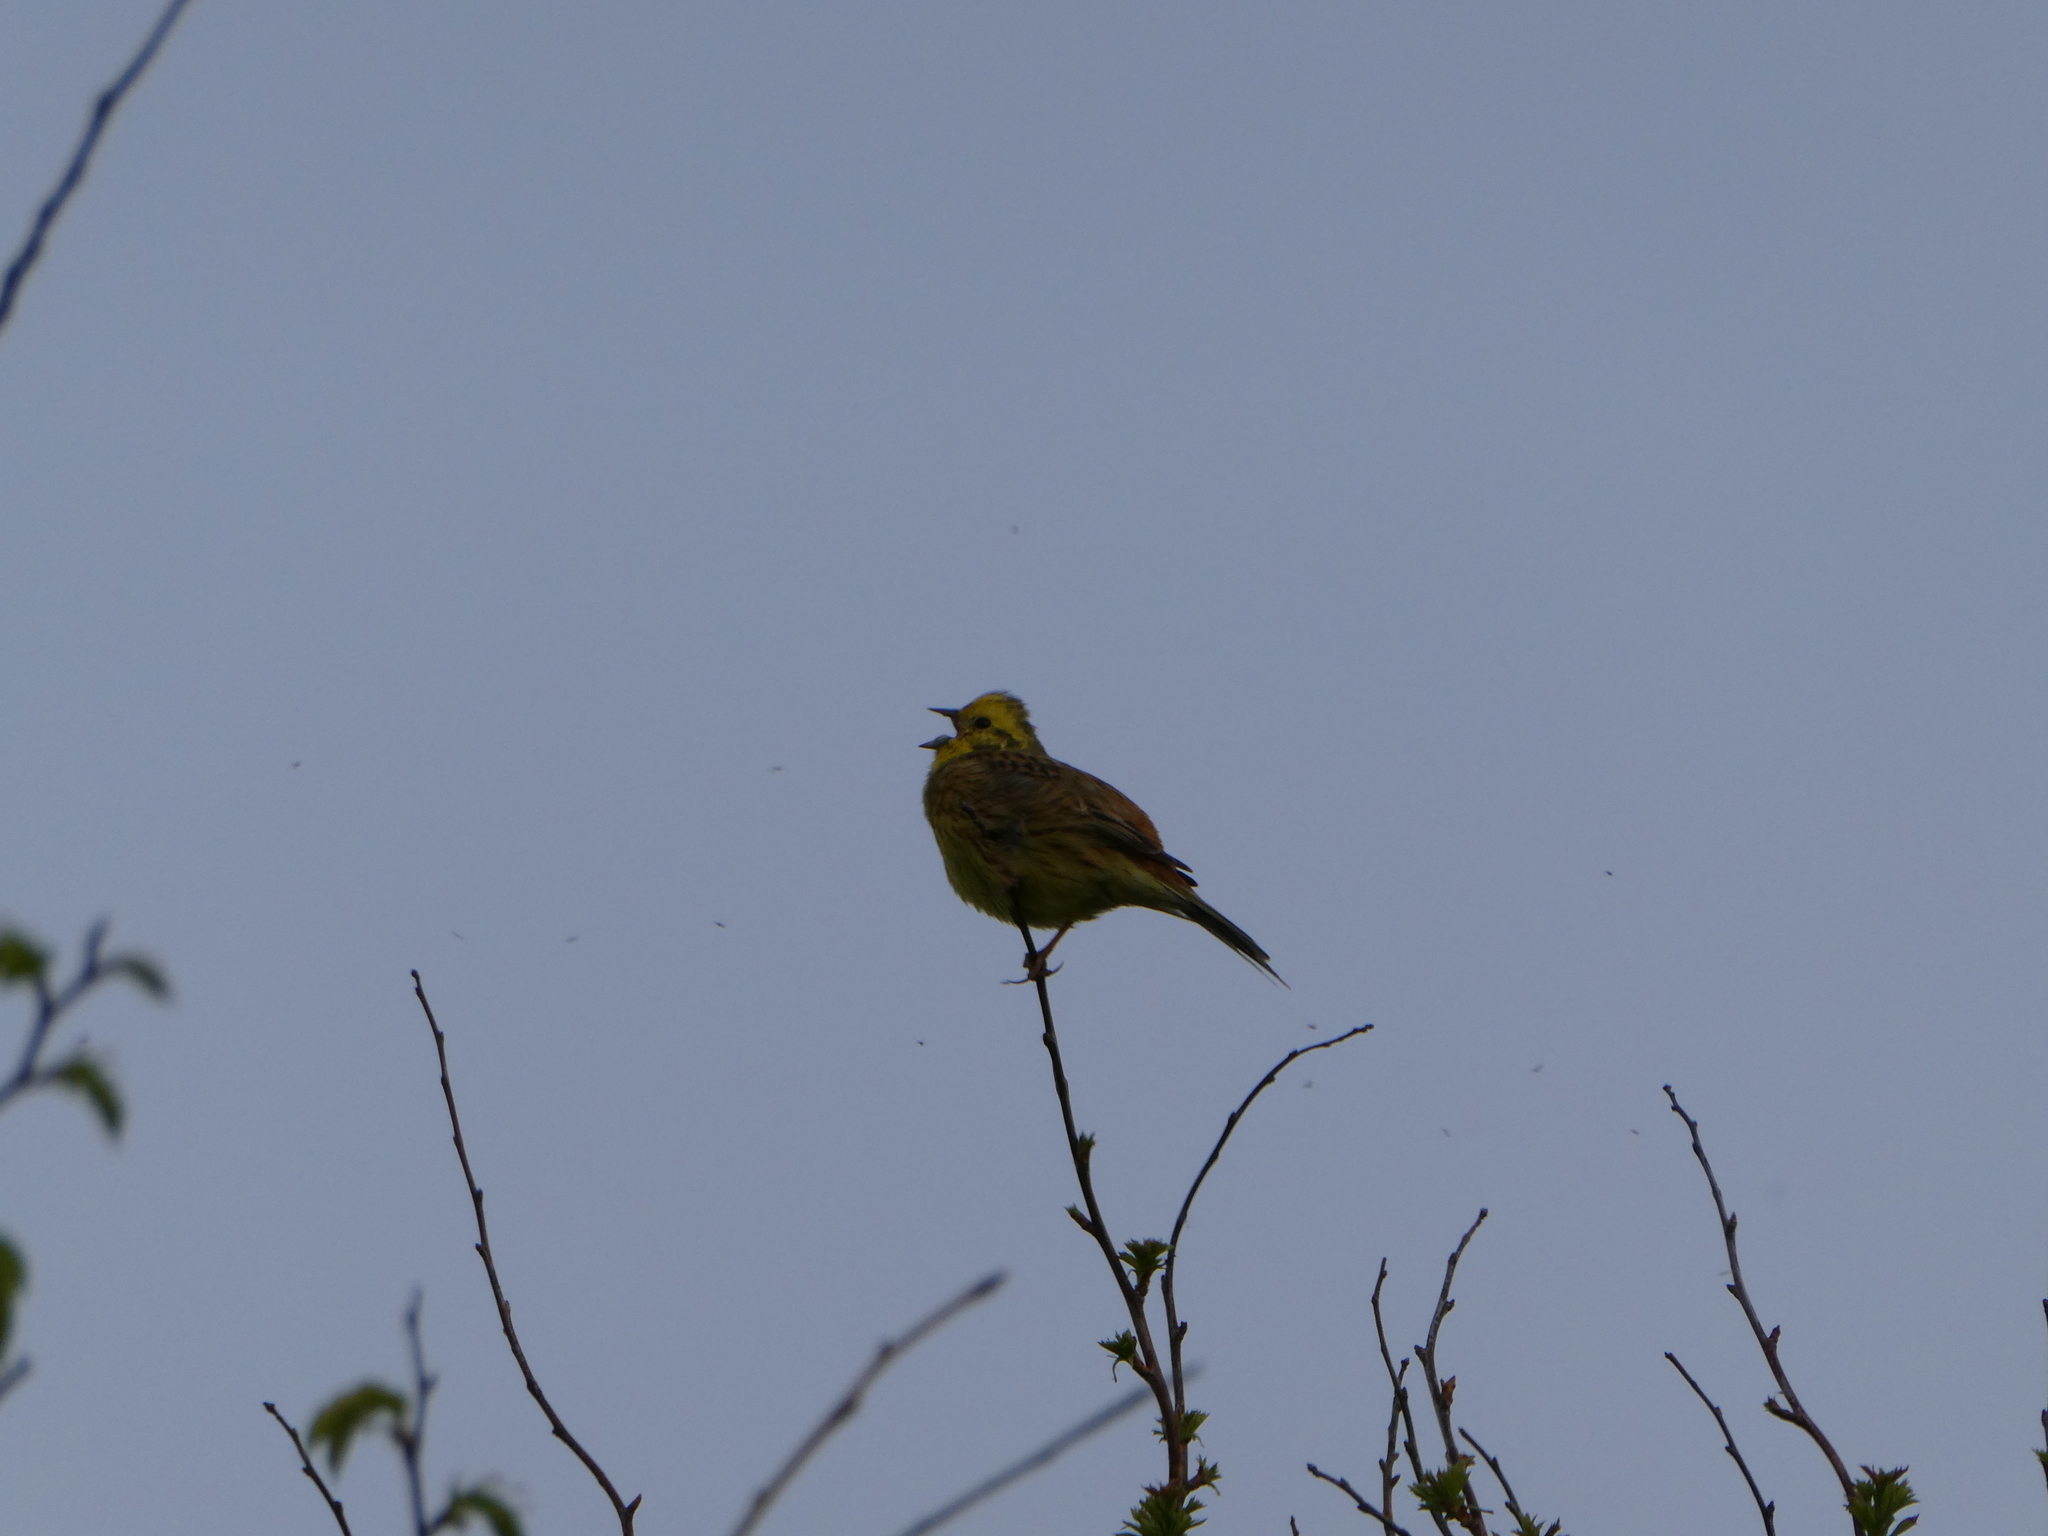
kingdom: Animalia
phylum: Chordata
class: Aves
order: Passeriformes
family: Emberizidae
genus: Emberiza
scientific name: Emberiza citrinella
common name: Yellowhammer
